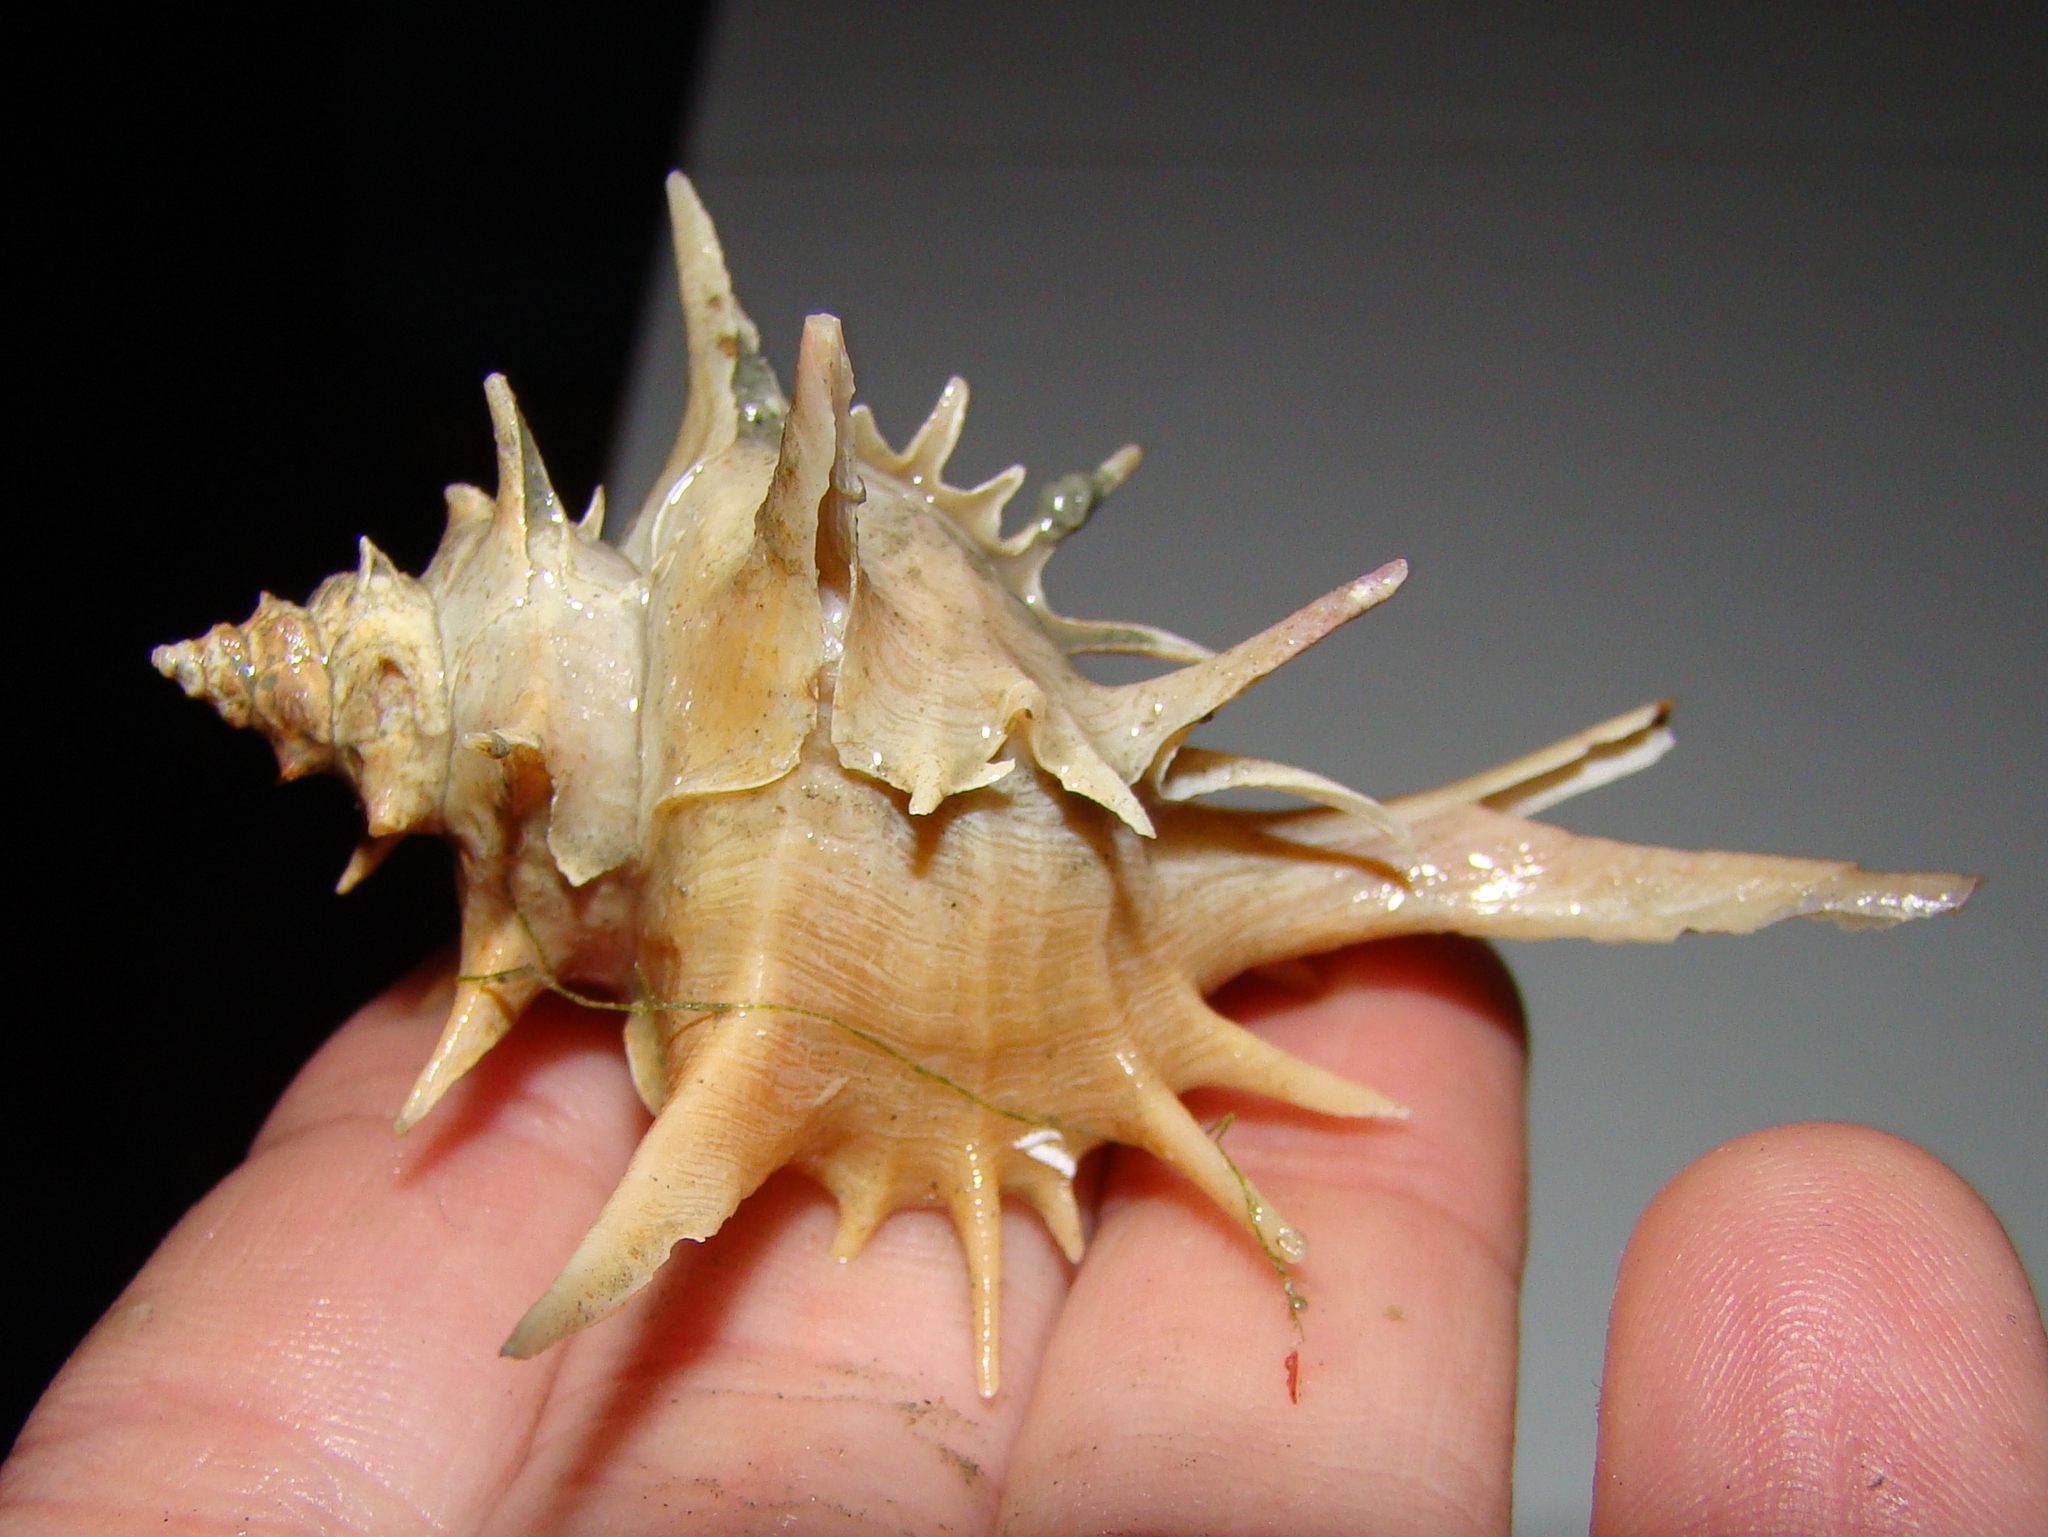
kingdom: Animalia
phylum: Mollusca
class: Gastropoda
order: Neogastropoda
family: Muricidae
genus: Poirieria
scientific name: Poirieria zelandica
